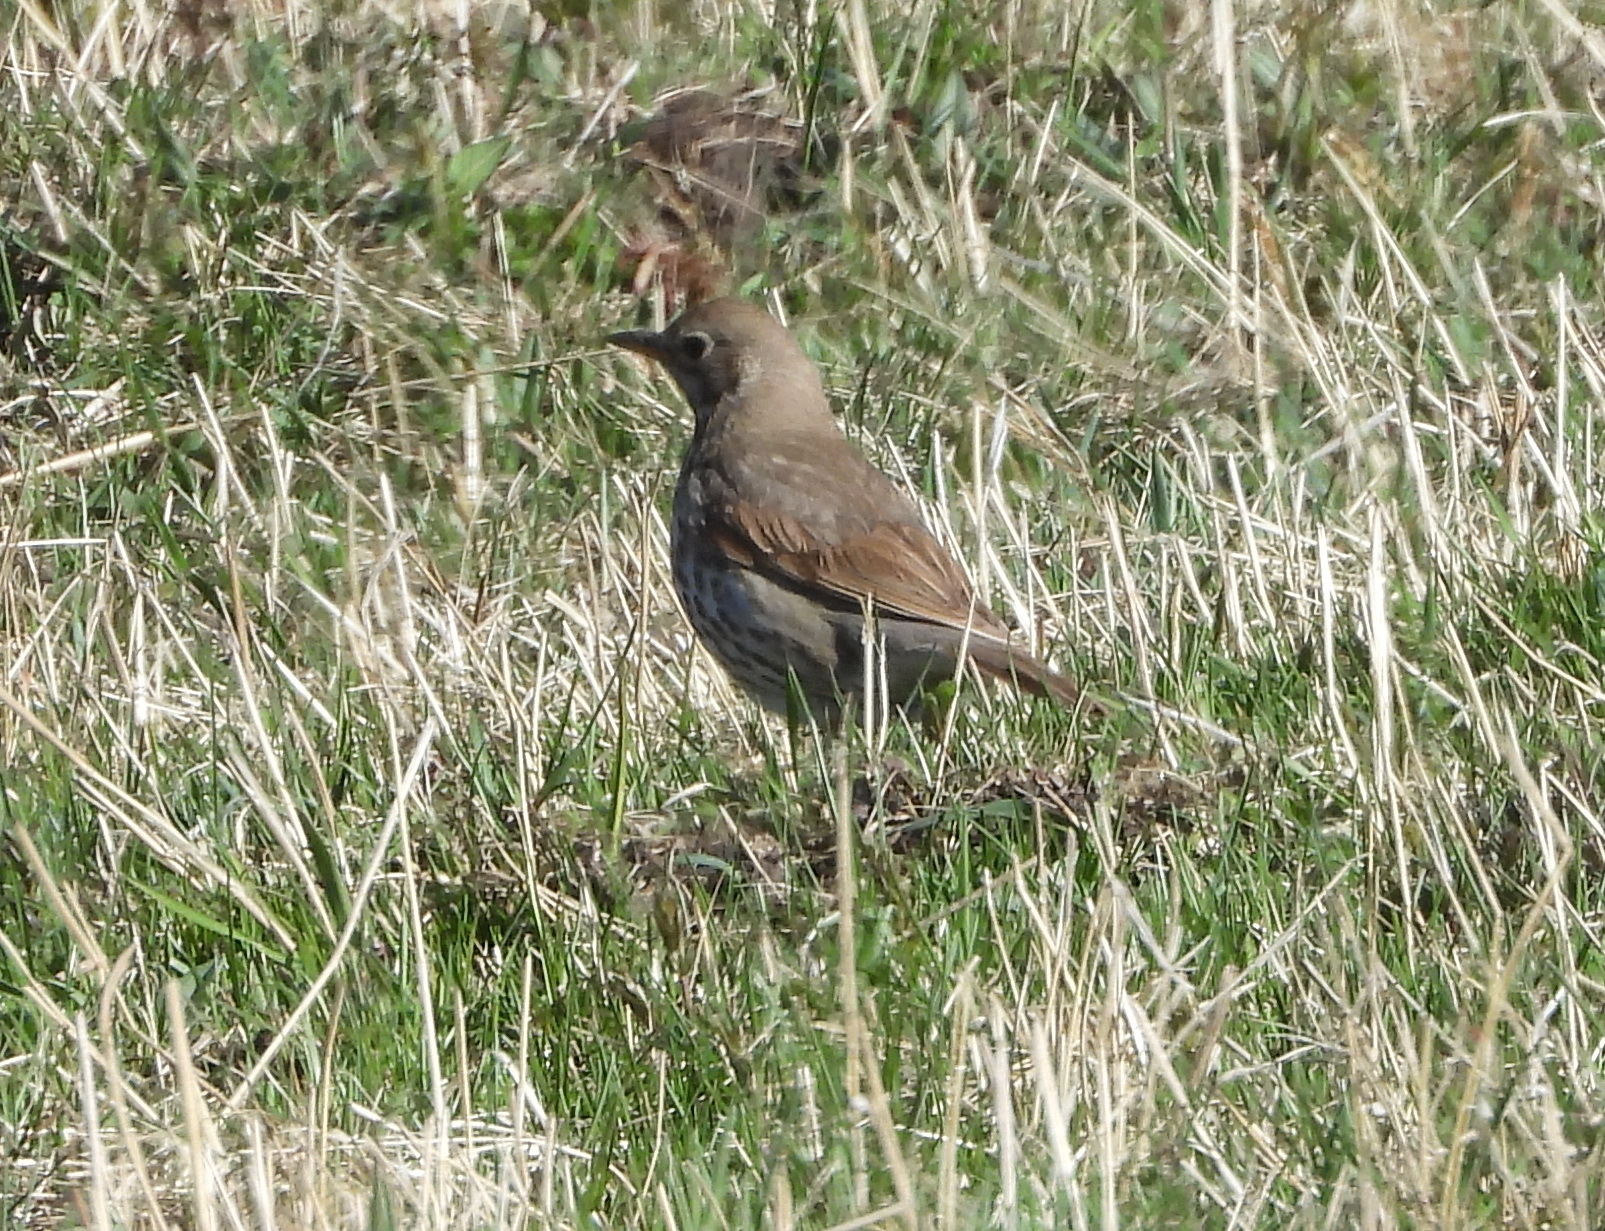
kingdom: Animalia
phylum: Chordata
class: Aves
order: Passeriformes
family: Turdidae
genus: Turdus
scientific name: Turdus philomelos
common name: Song thrush
